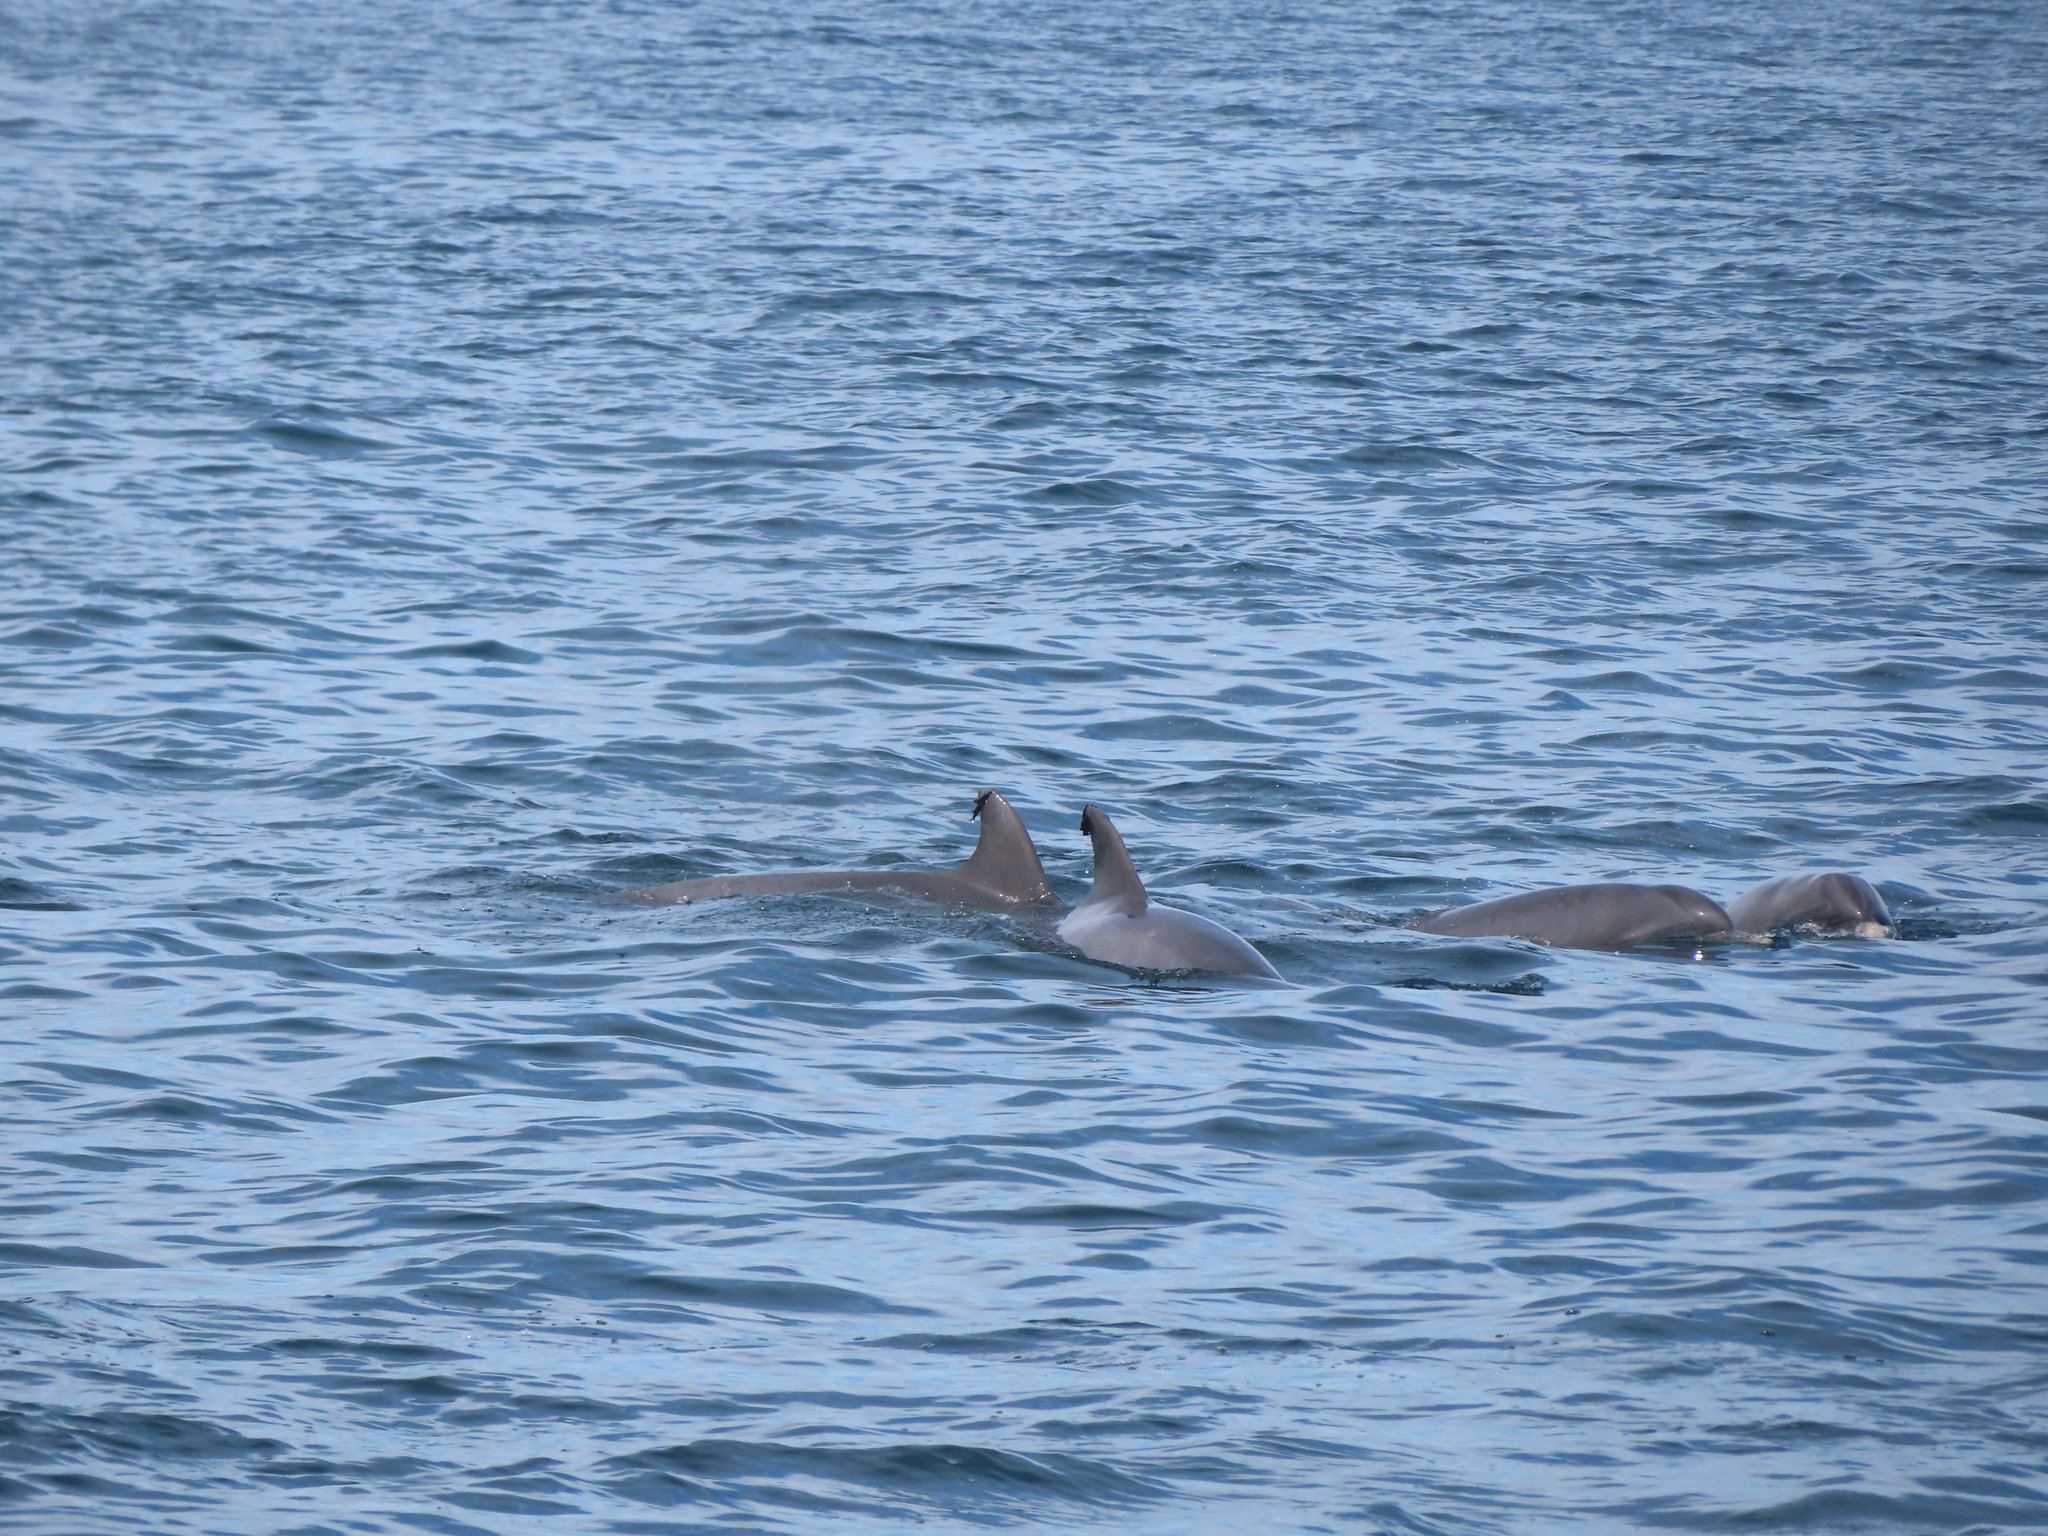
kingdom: Animalia
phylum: Chordata
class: Mammalia
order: Cetacea
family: Delphinidae
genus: Tursiops
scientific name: Tursiops truncatus
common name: Bottlenose dolphin
